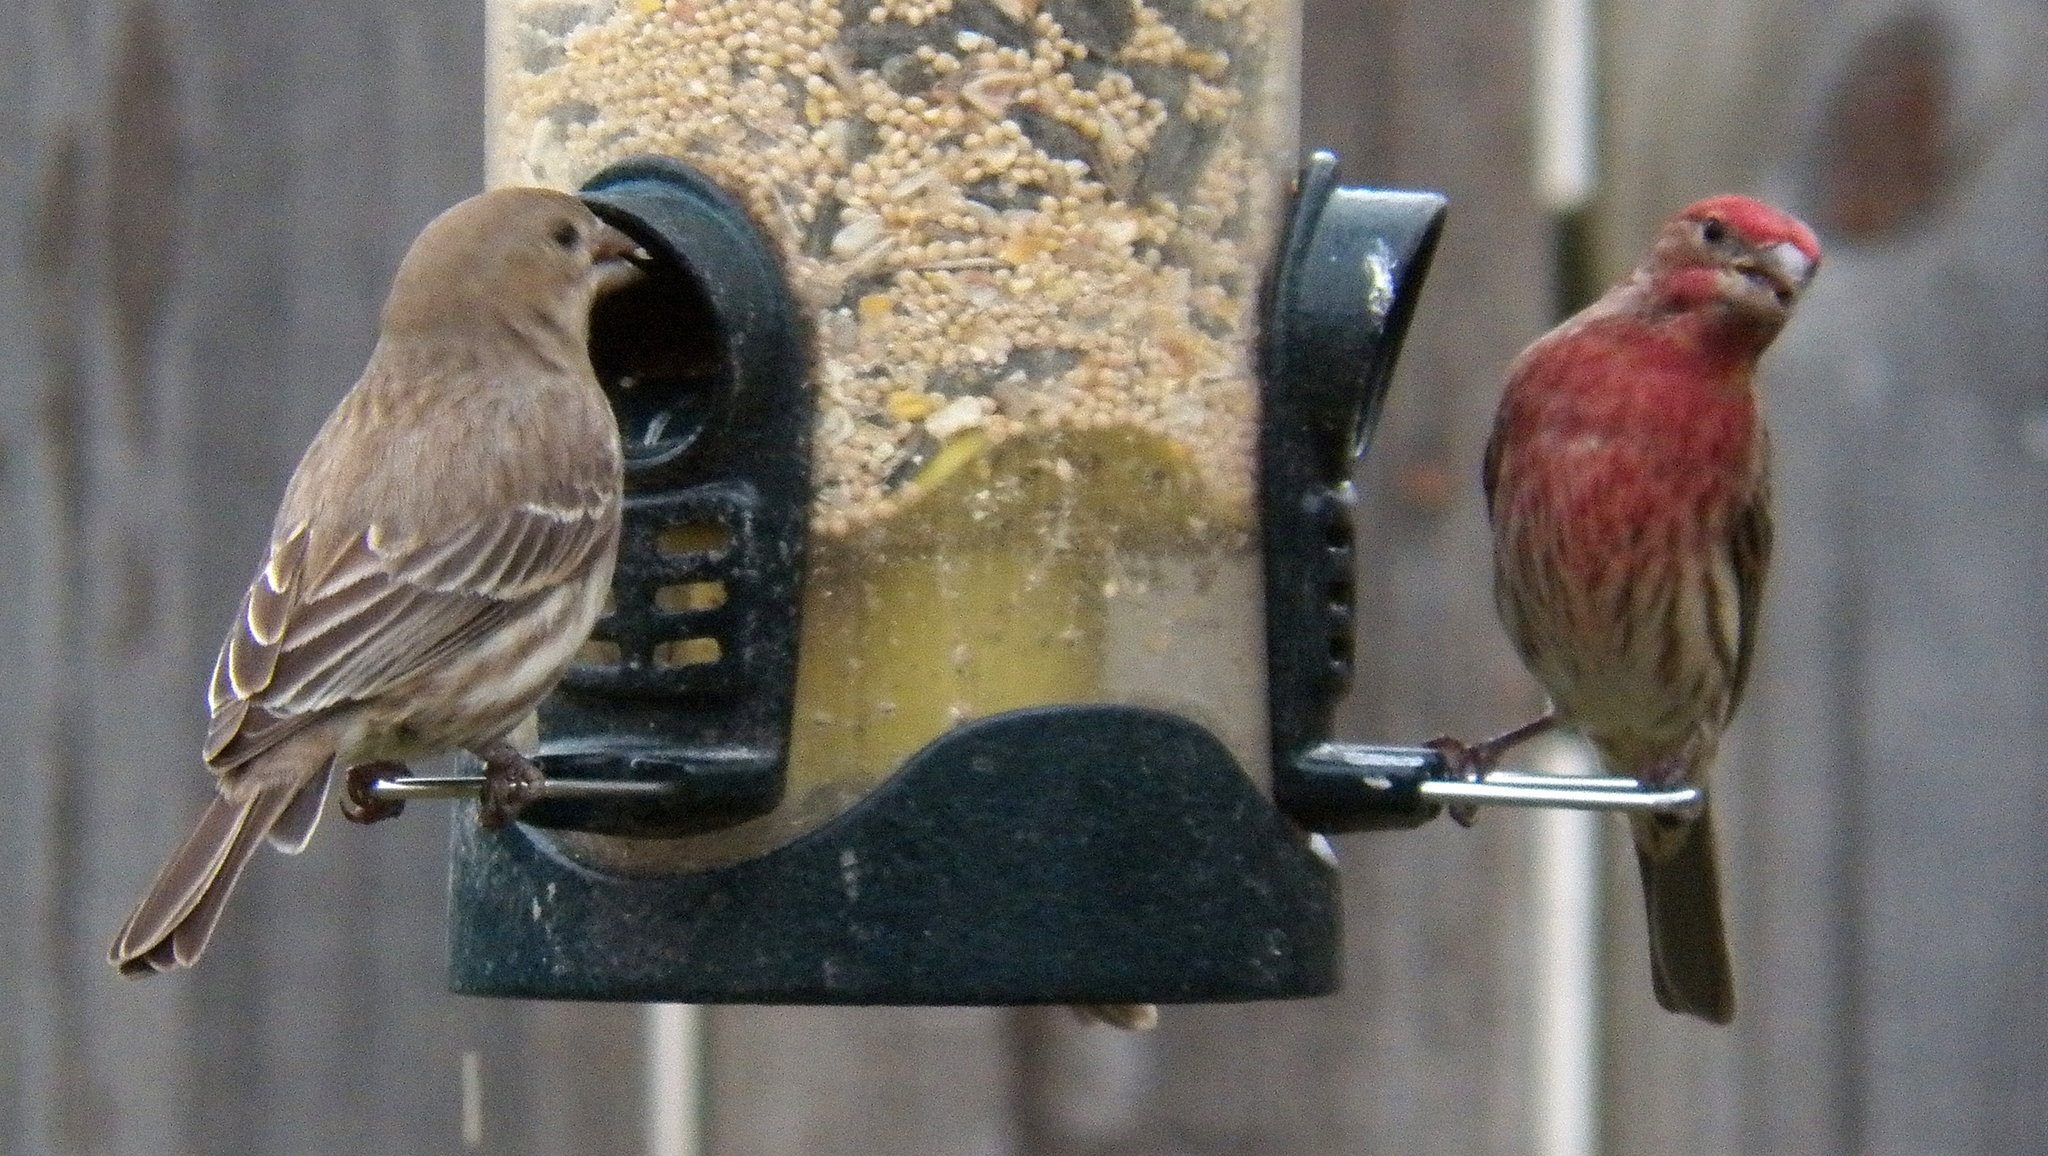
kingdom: Animalia
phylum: Chordata
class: Aves
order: Passeriformes
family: Fringillidae
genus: Haemorhous
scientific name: Haemorhous mexicanus
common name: House finch
